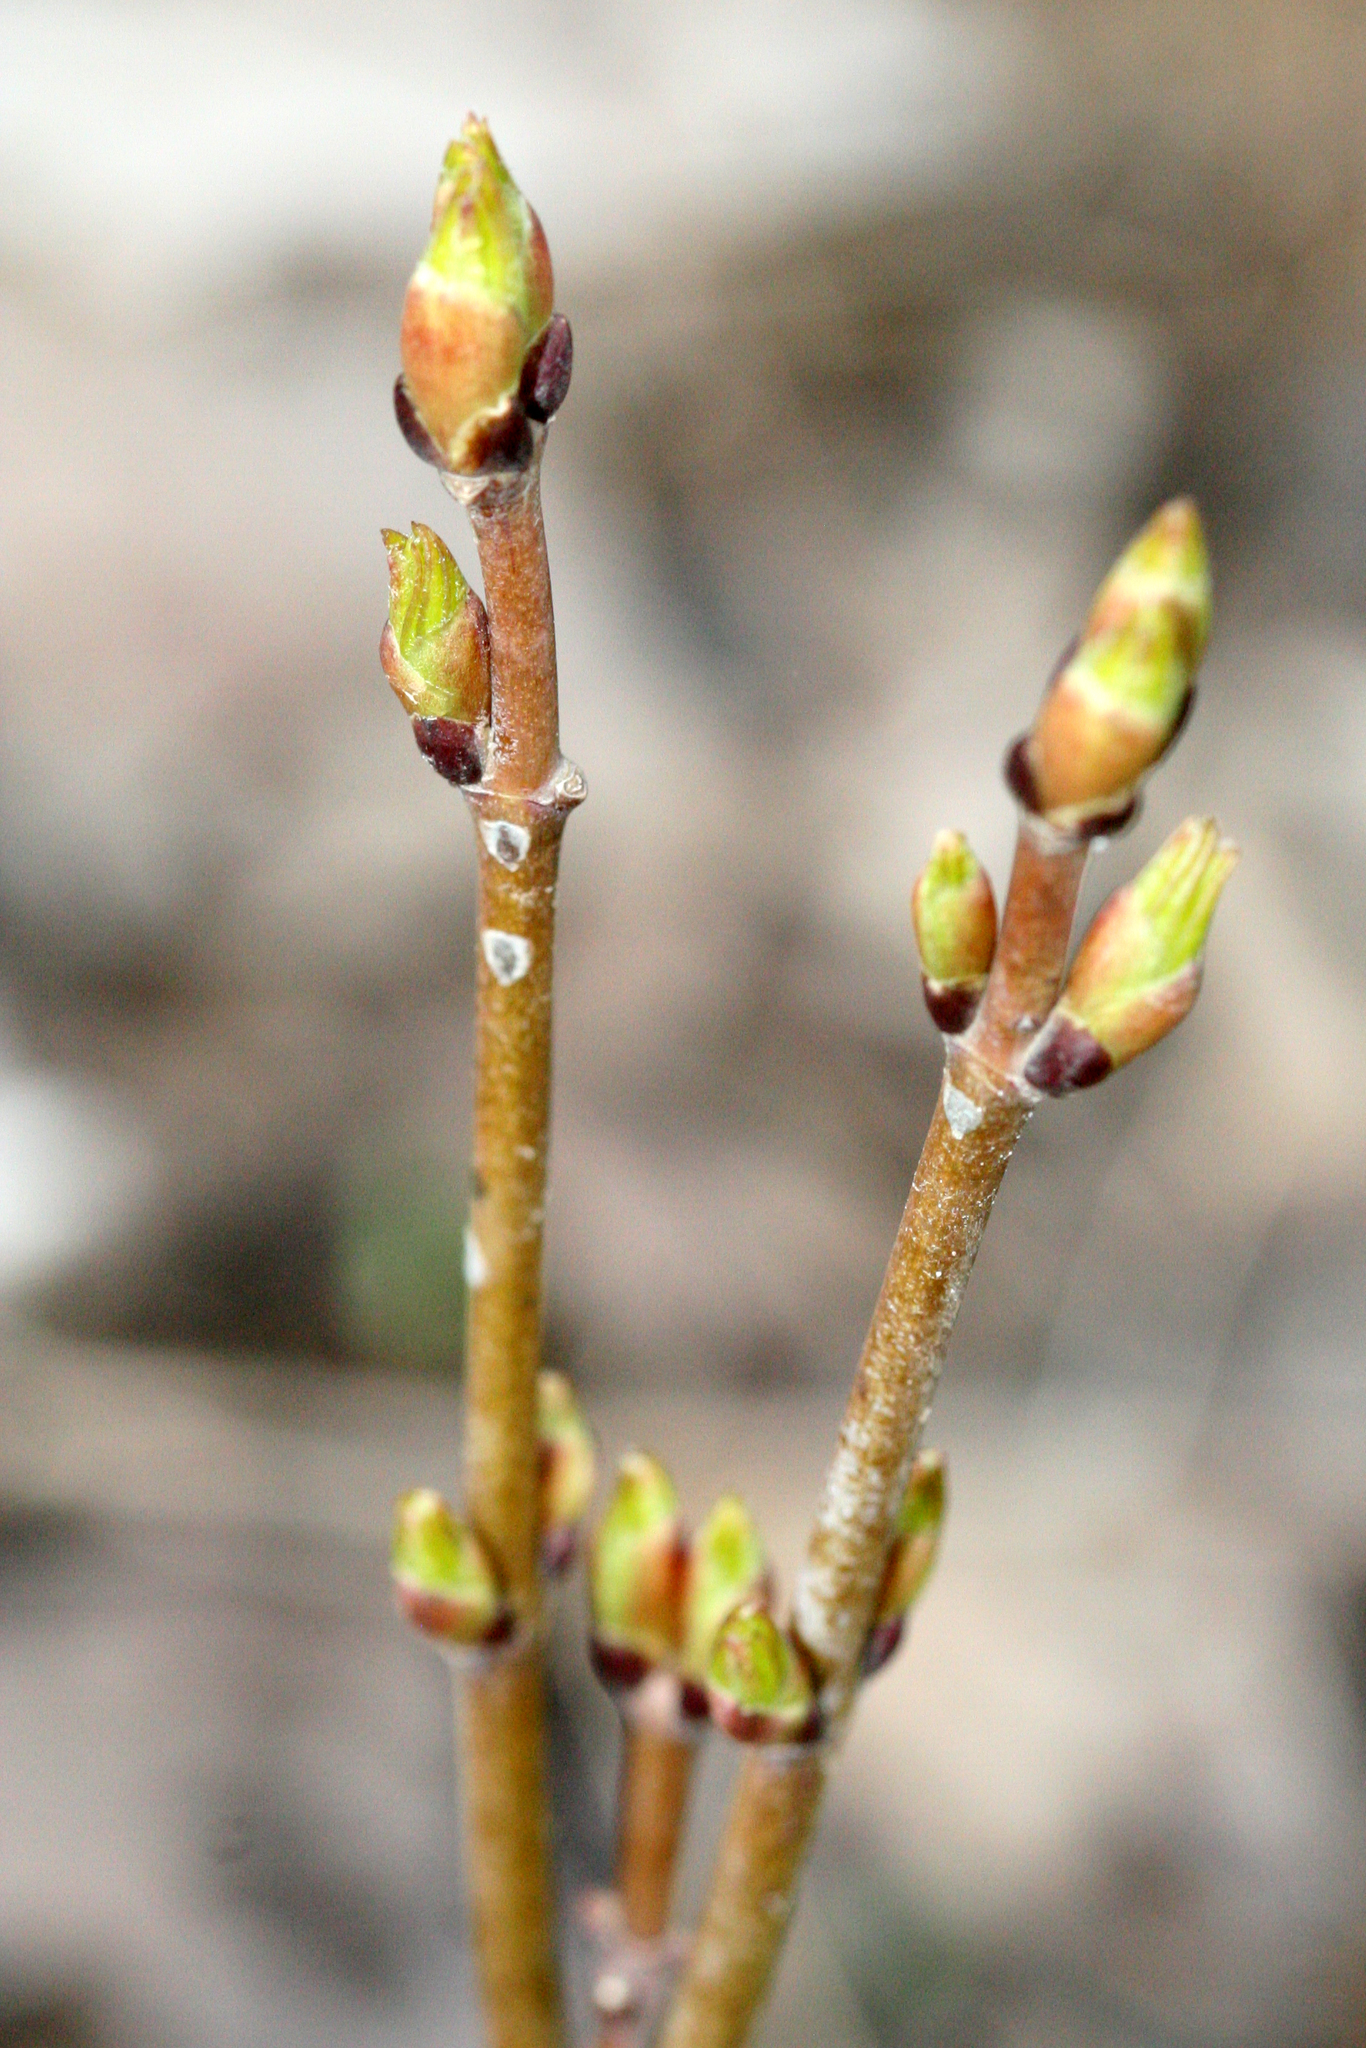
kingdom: Plantae
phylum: Tracheophyta
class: Magnoliopsida
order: Crossosomatales
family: Staphyleaceae
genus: Staphylea
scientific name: Staphylea trifolia
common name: American bladdernut
